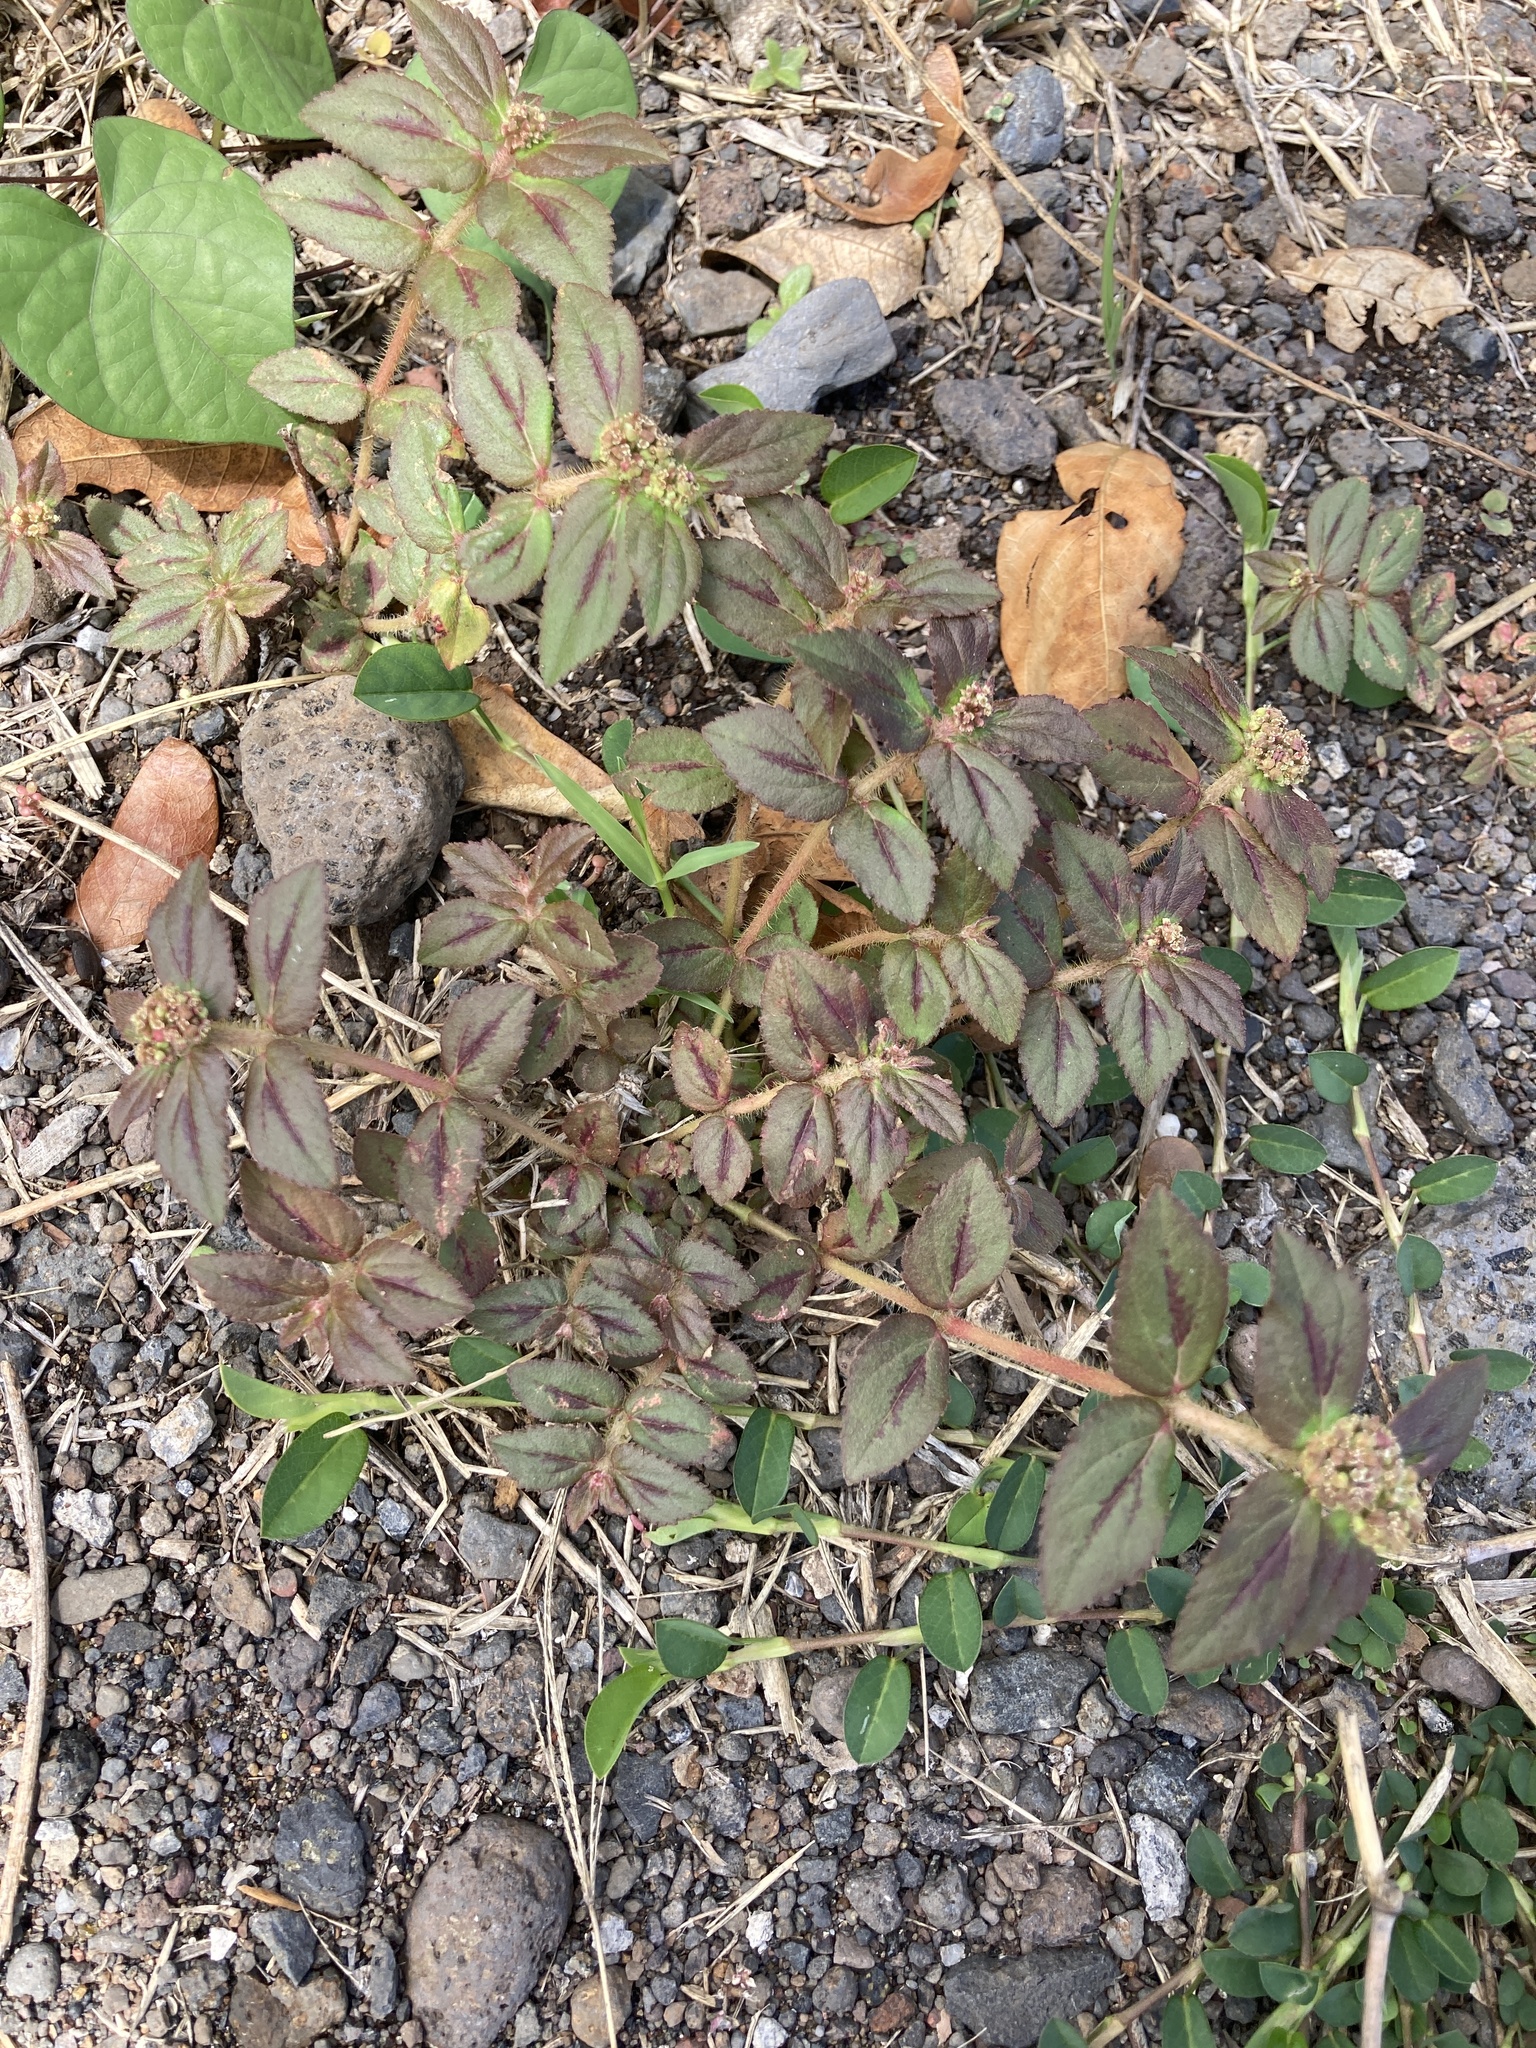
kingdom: Plantae
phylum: Tracheophyta
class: Magnoliopsida
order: Malpighiales
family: Euphorbiaceae
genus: Euphorbia
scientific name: Euphorbia hirta
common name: Pillpod sandmat
